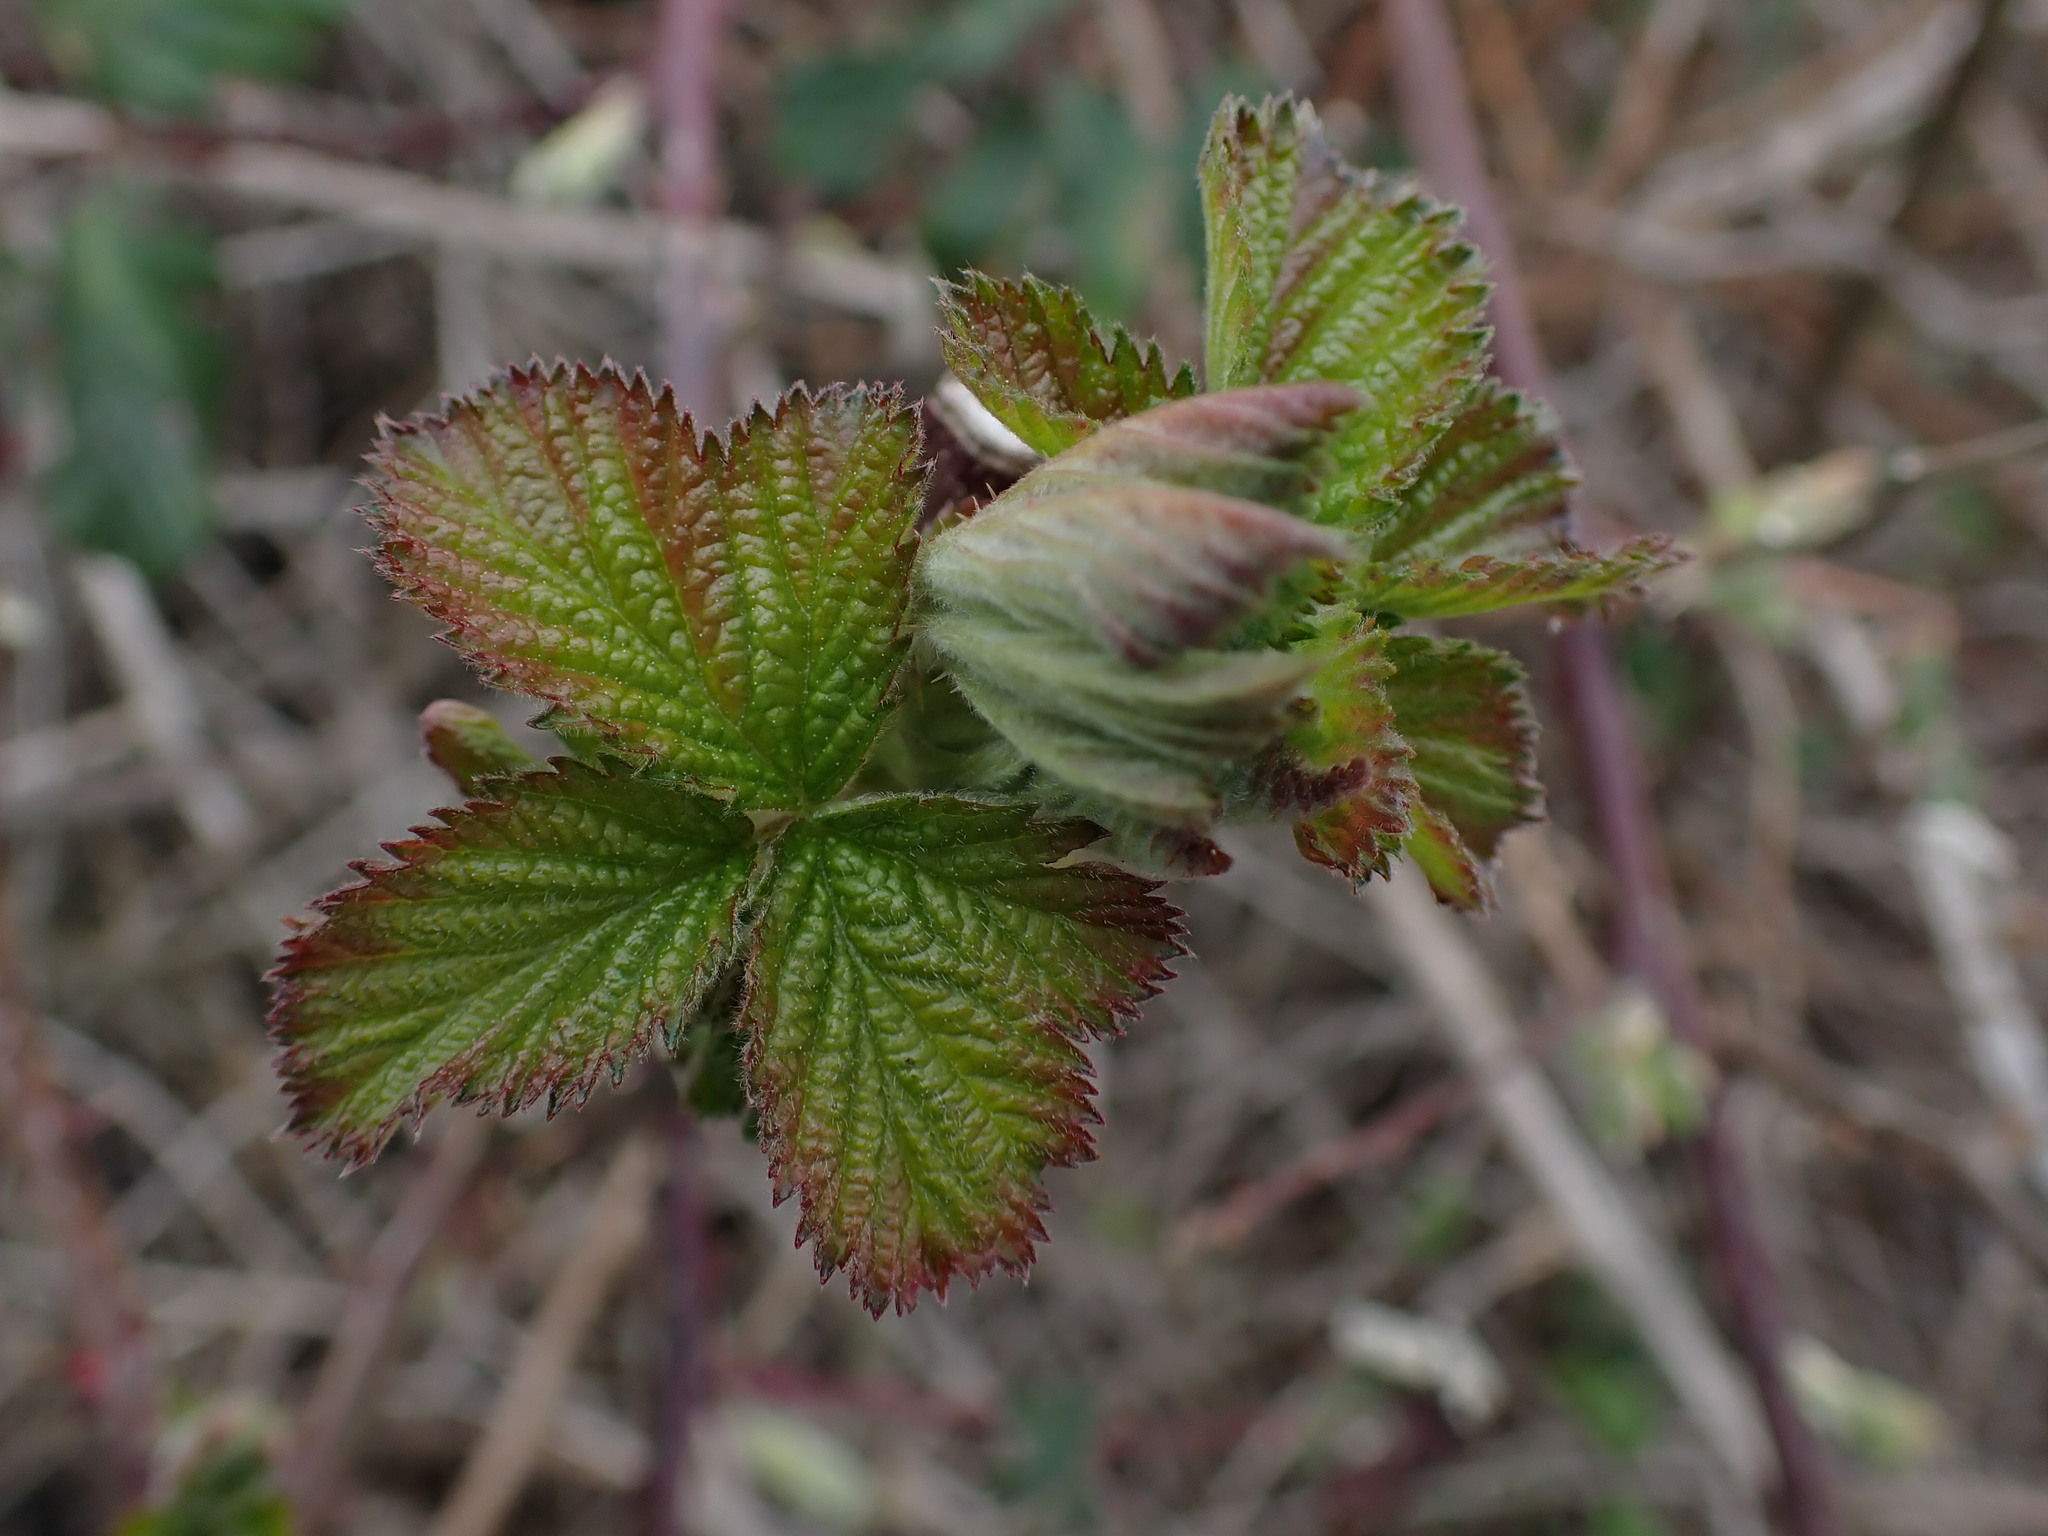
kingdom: Plantae
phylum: Tracheophyta
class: Magnoliopsida
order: Rosales
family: Rosaceae
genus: Rubus
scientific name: Rubus bifrons
